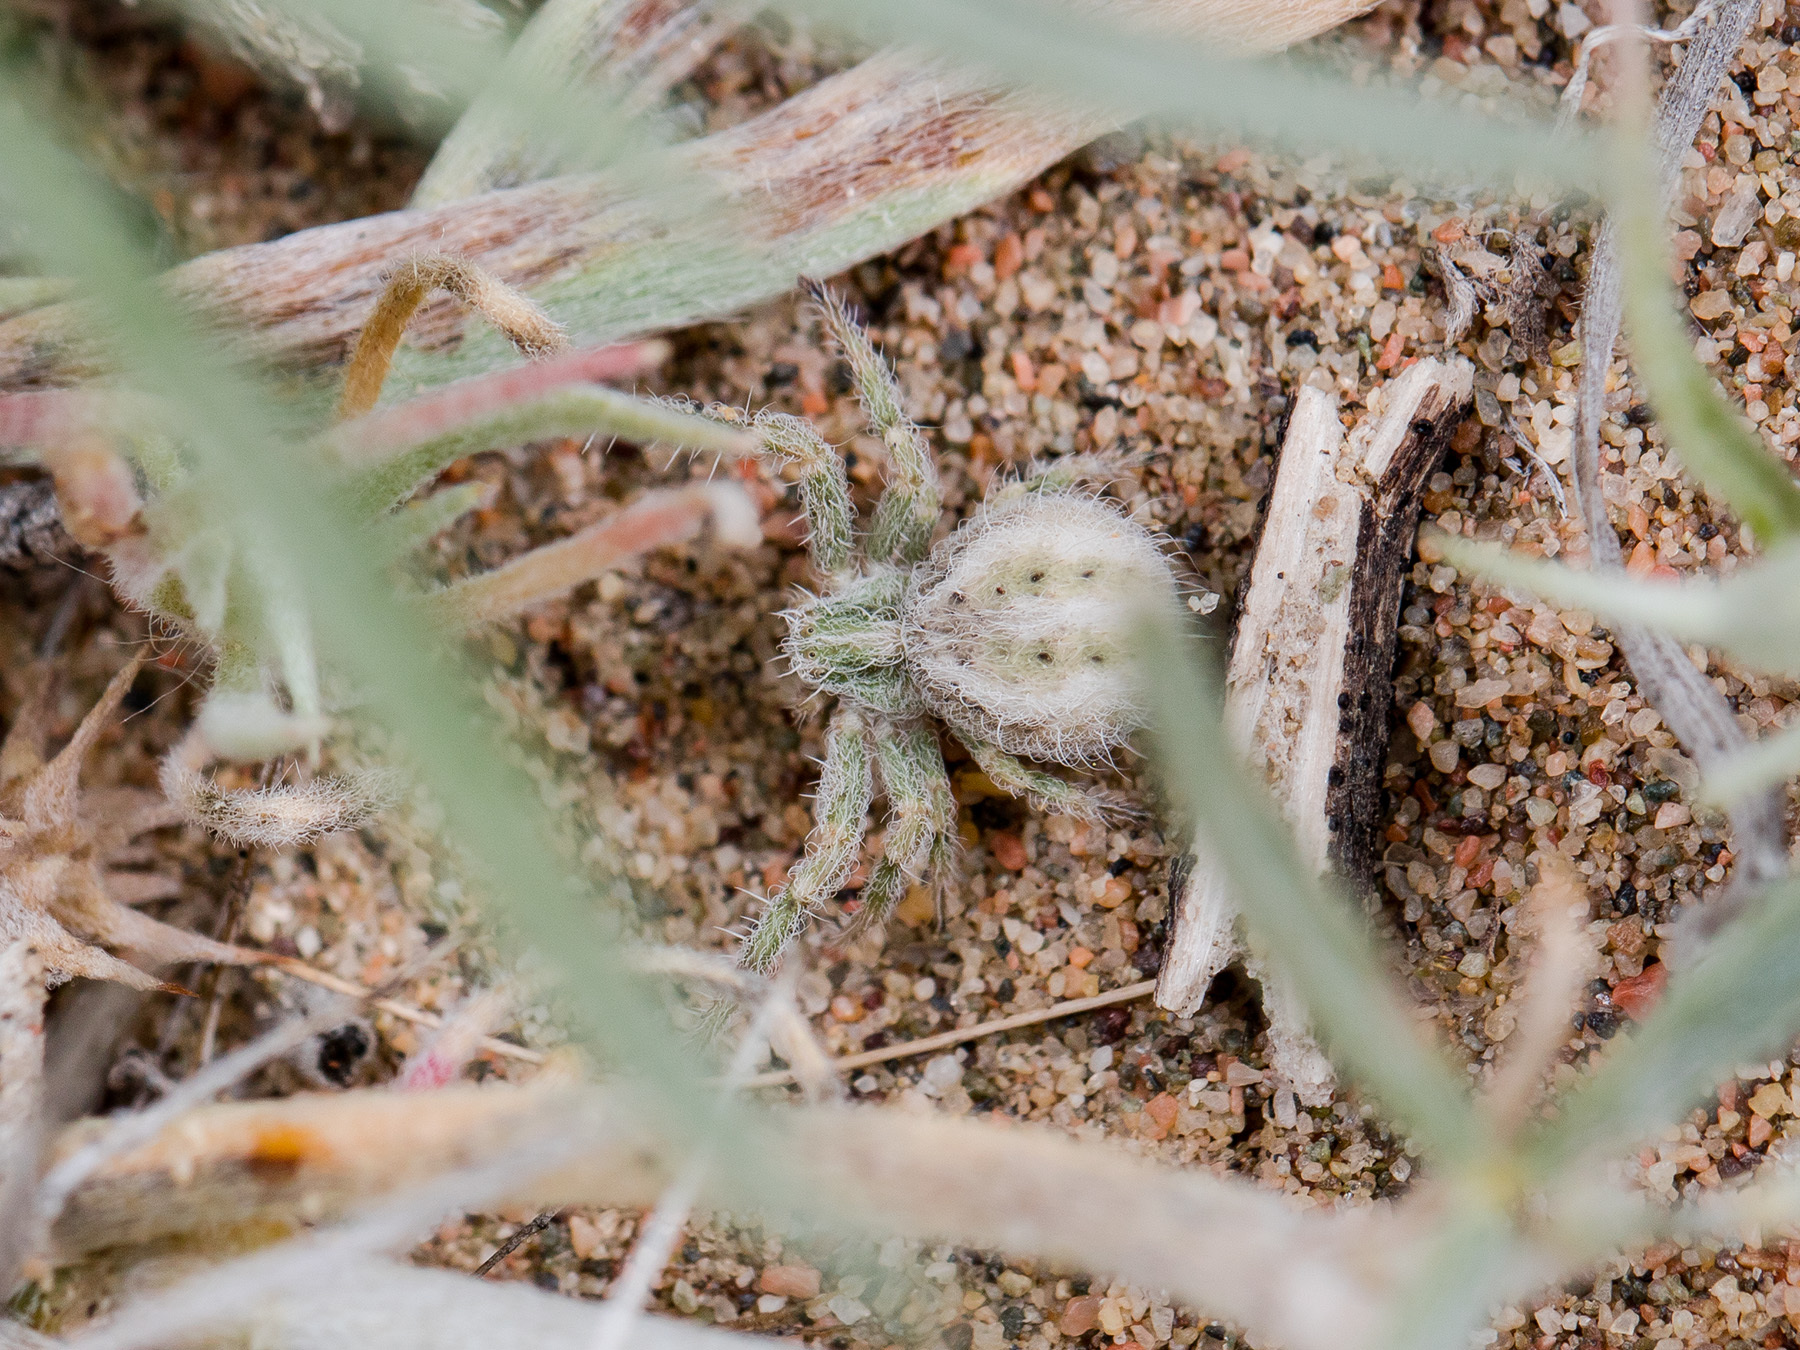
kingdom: Animalia
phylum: Arthropoda
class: Arachnida
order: Araneae
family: Thomisidae
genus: Heriaeus
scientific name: Heriaeus horridus
